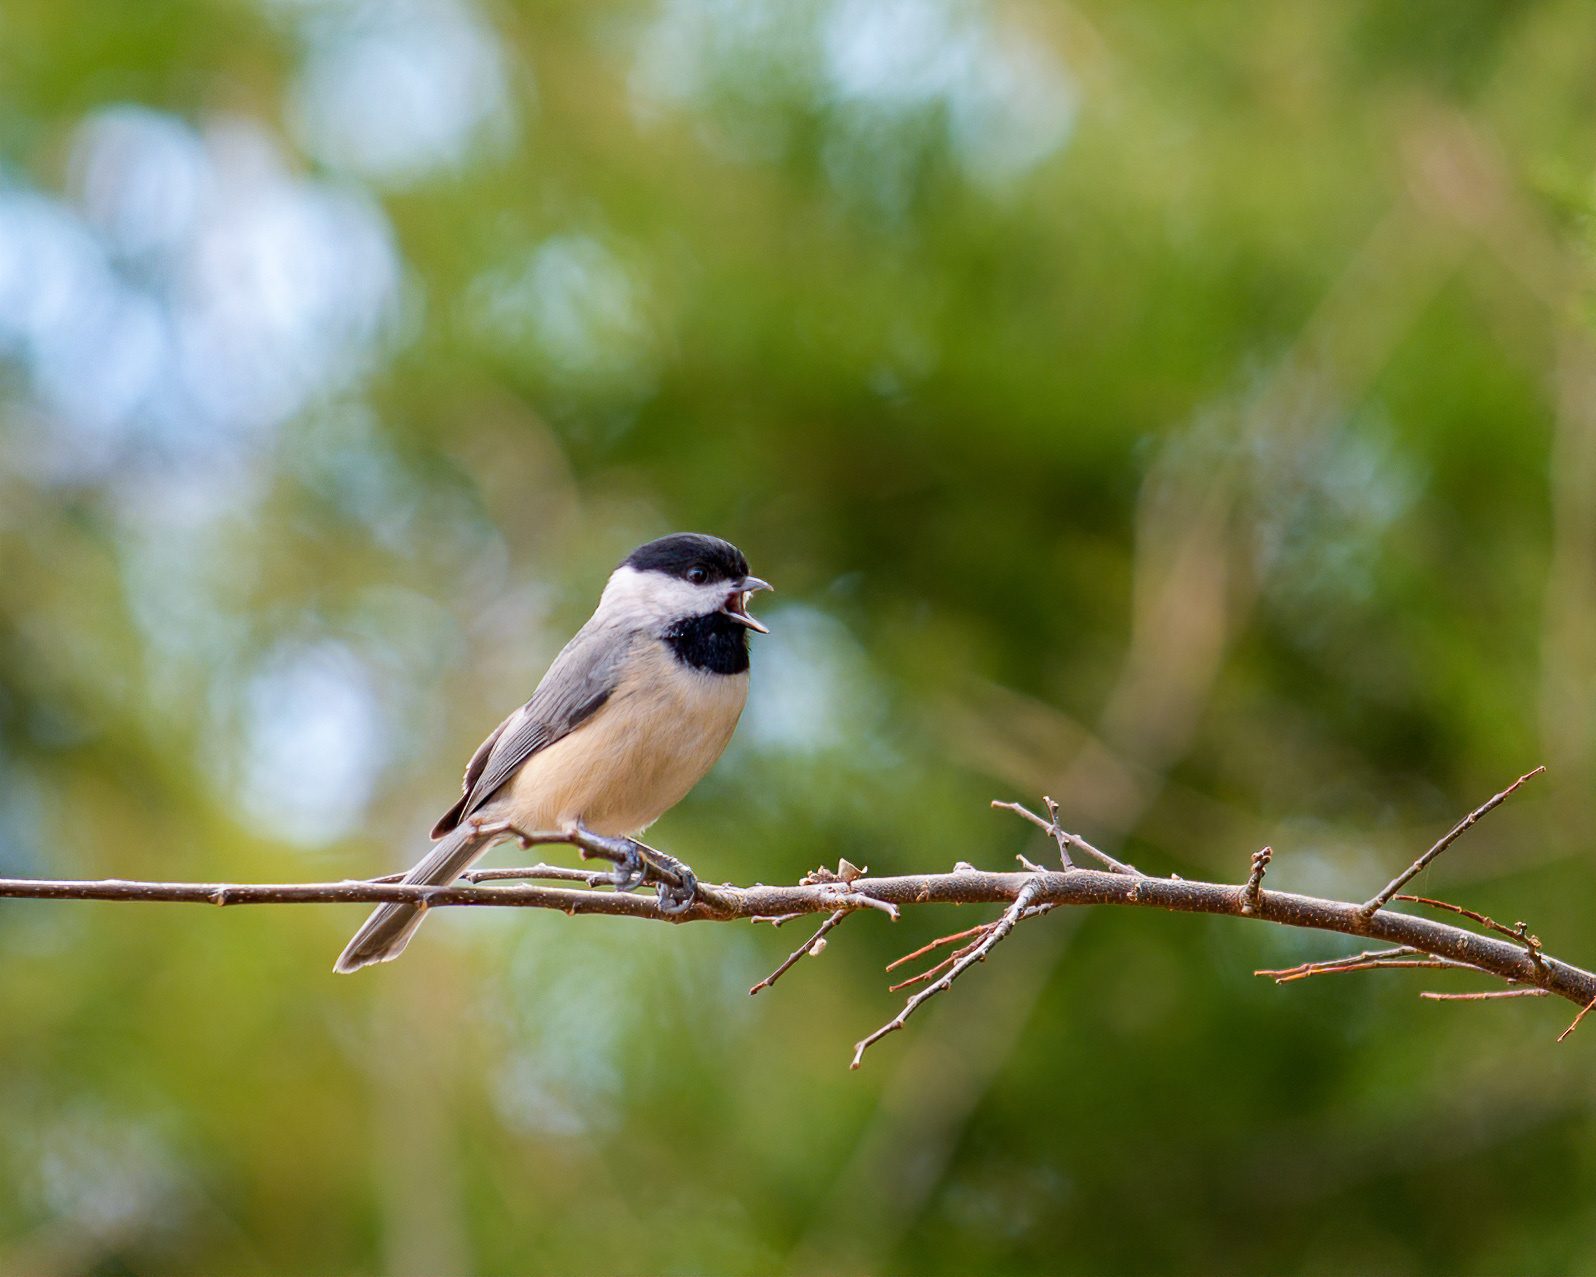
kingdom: Animalia
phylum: Chordata
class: Aves
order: Passeriformes
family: Paridae
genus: Poecile
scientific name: Poecile carolinensis
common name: Carolina chickadee
